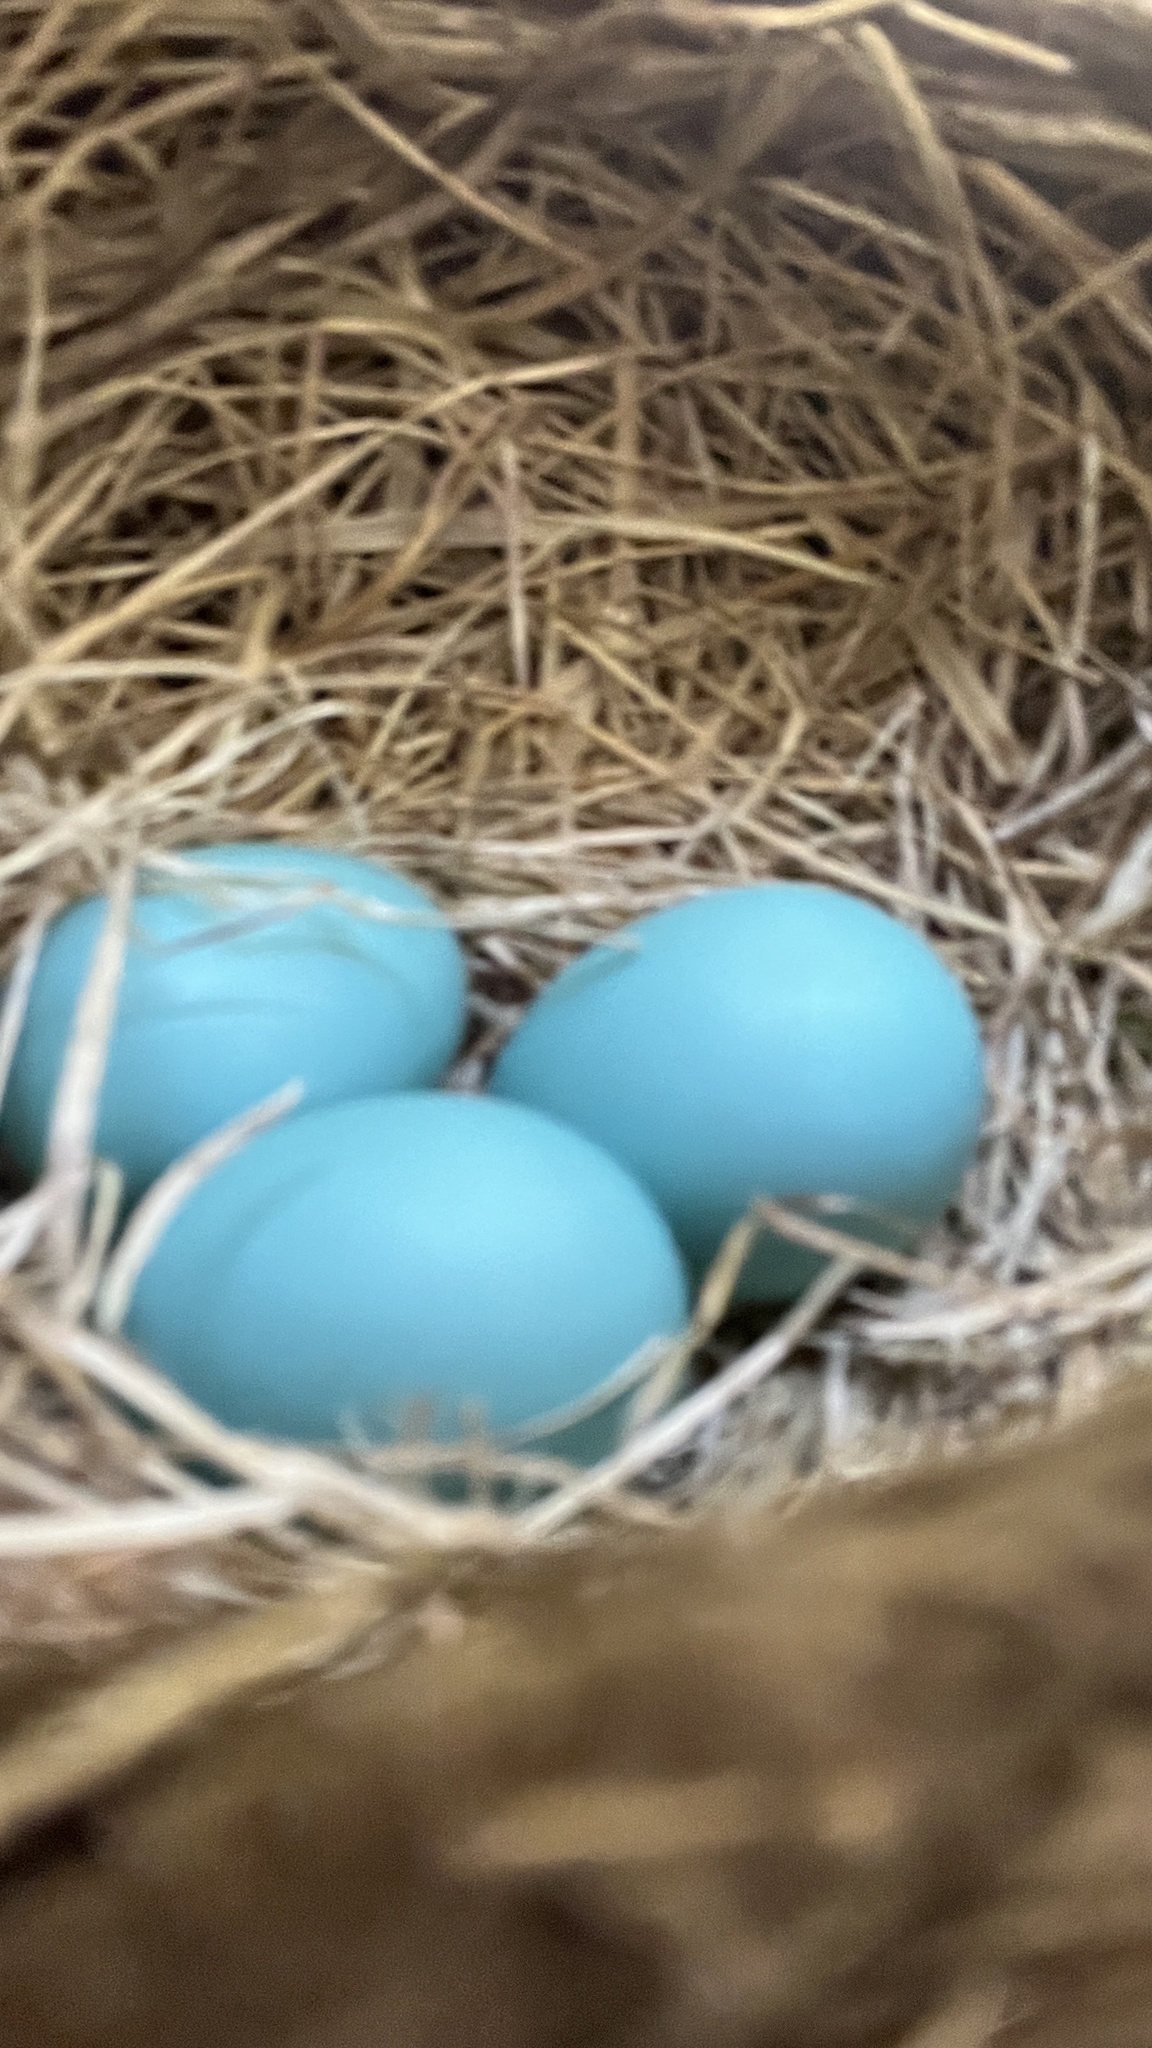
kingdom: Animalia
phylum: Chordata
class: Aves
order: Passeriformes
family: Turdidae
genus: Turdus
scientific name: Turdus migratorius
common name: American robin
